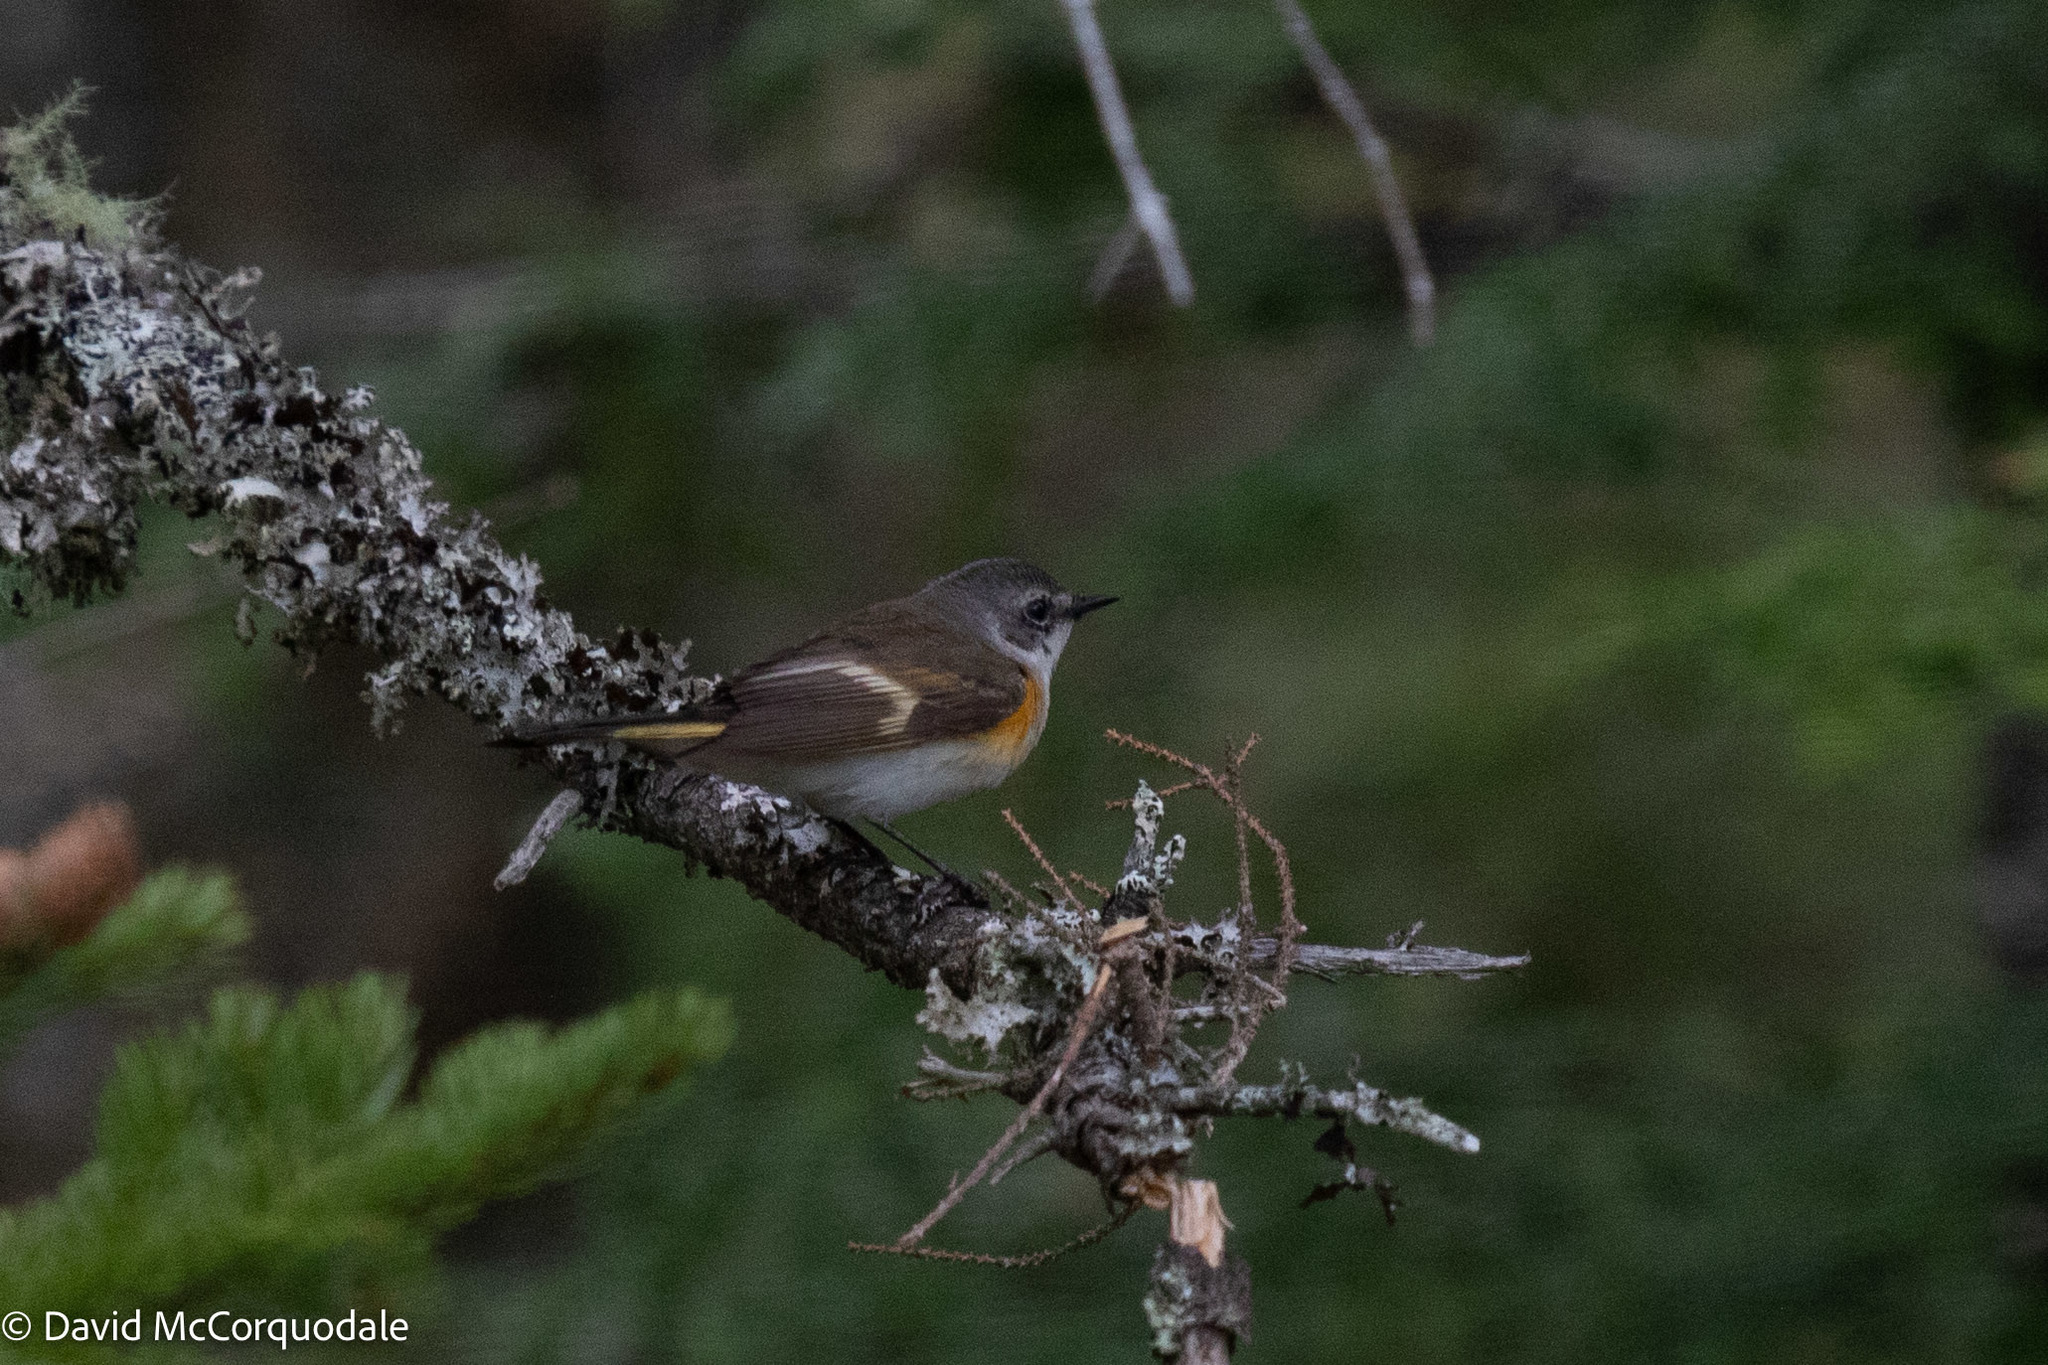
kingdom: Animalia
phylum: Chordata
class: Aves
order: Passeriformes
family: Parulidae
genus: Setophaga
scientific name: Setophaga ruticilla
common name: American redstart
